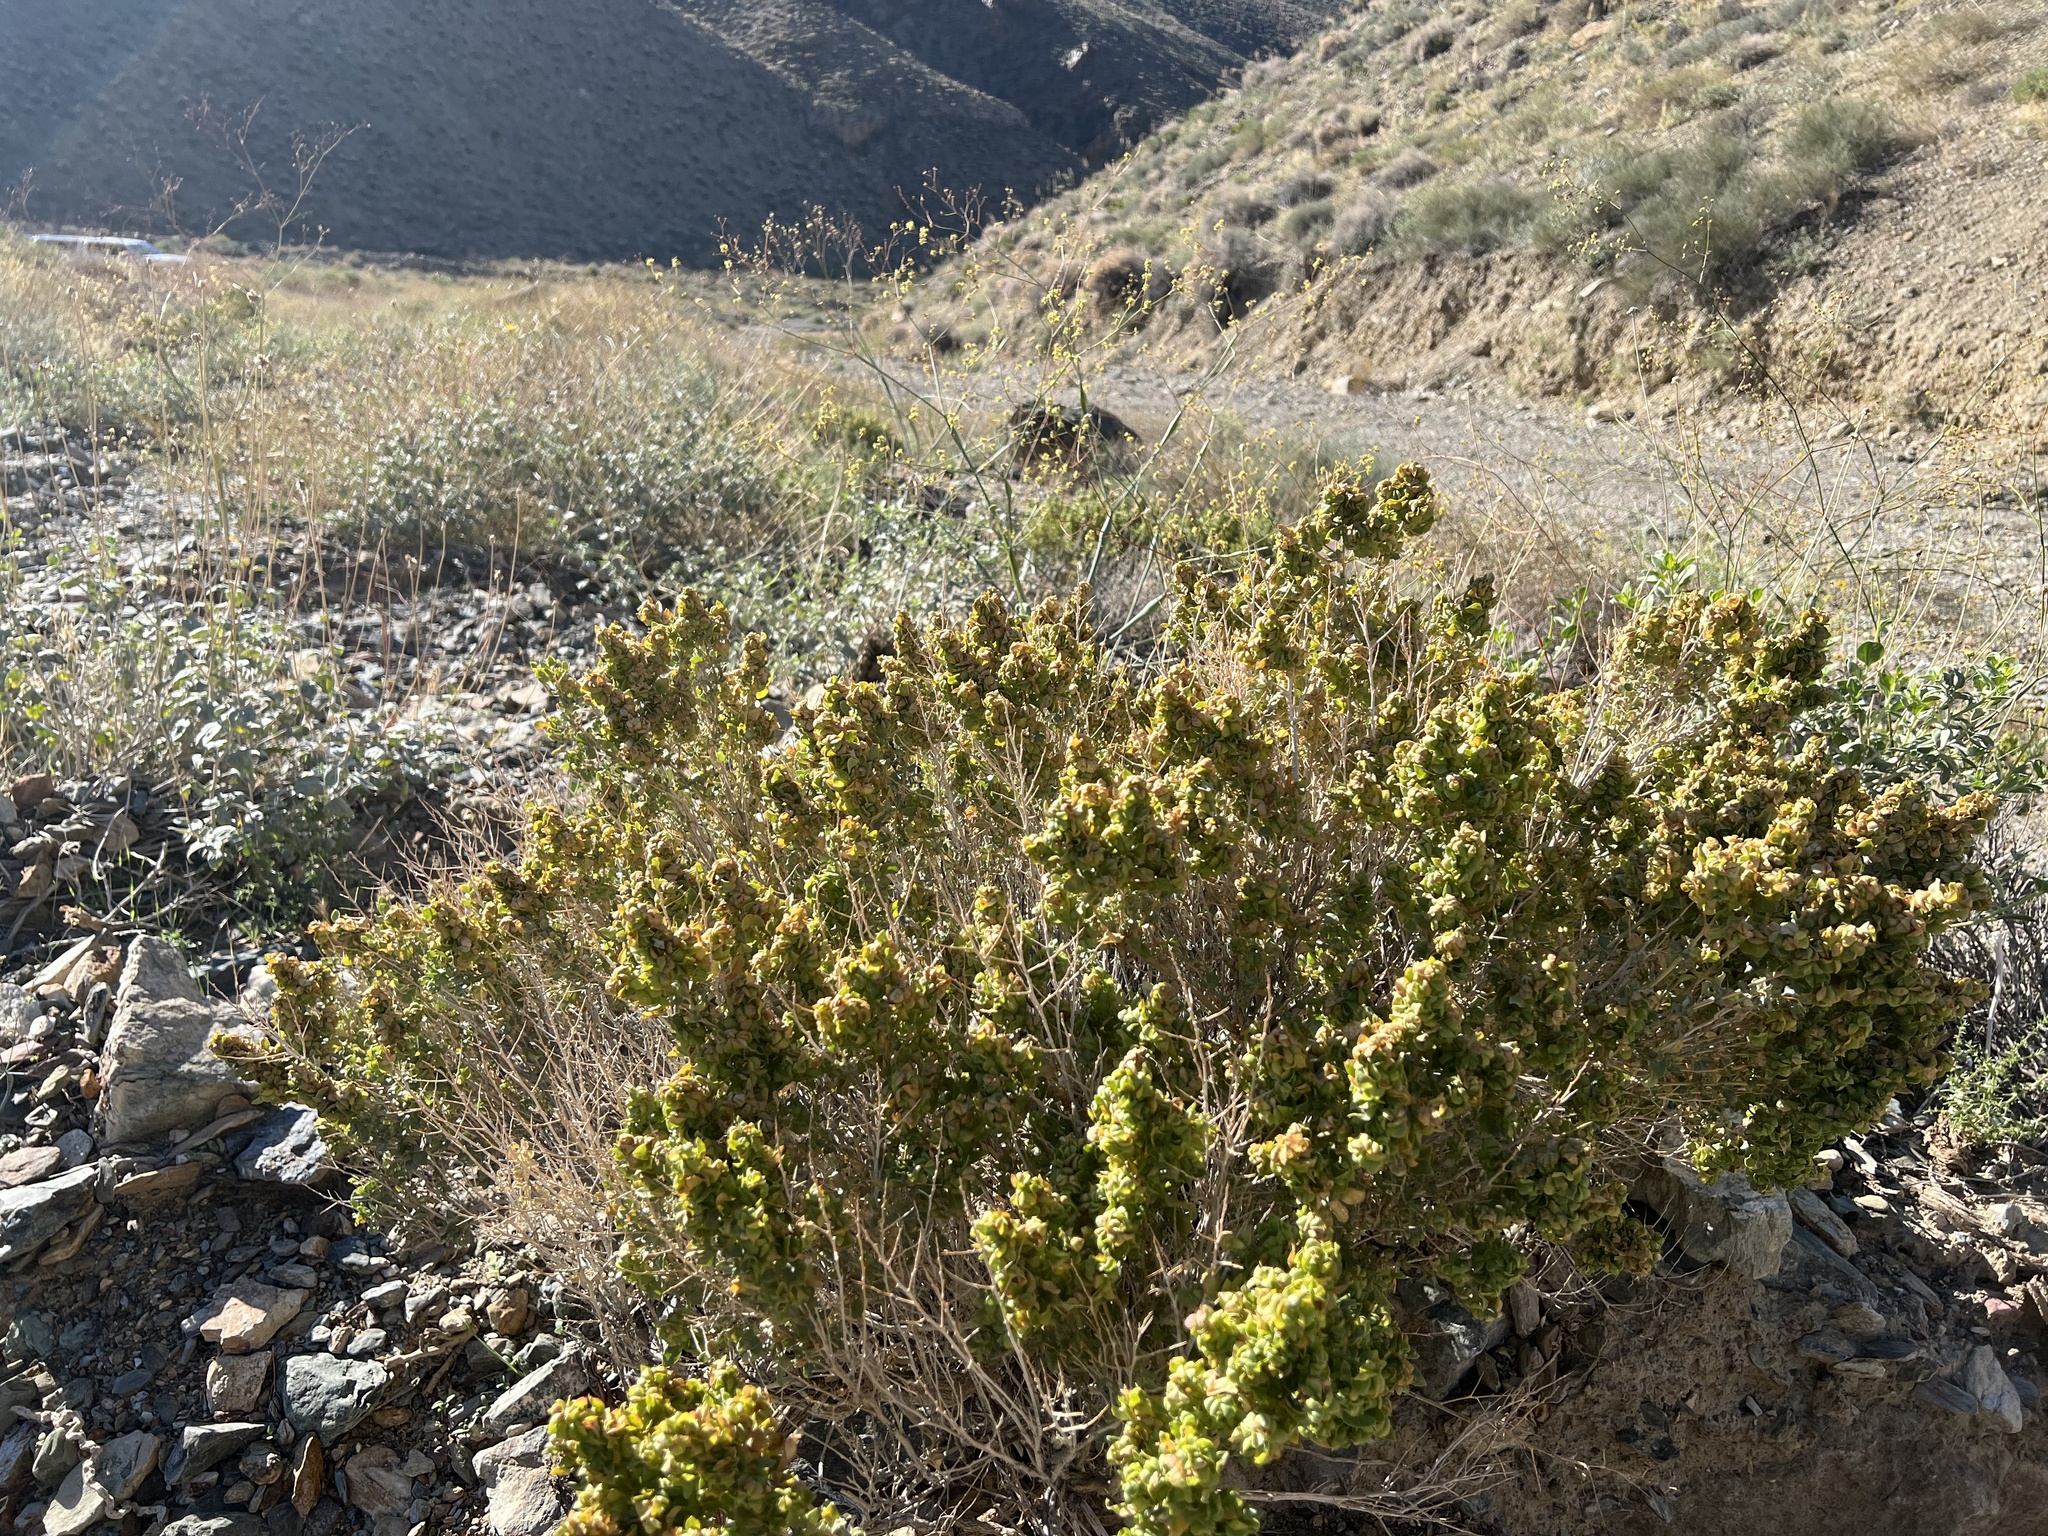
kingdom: Plantae
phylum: Tracheophyta
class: Magnoliopsida
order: Caryophyllales
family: Amaranthaceae
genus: Atriplex
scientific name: Atriplex confertifolia
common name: Shadscale
